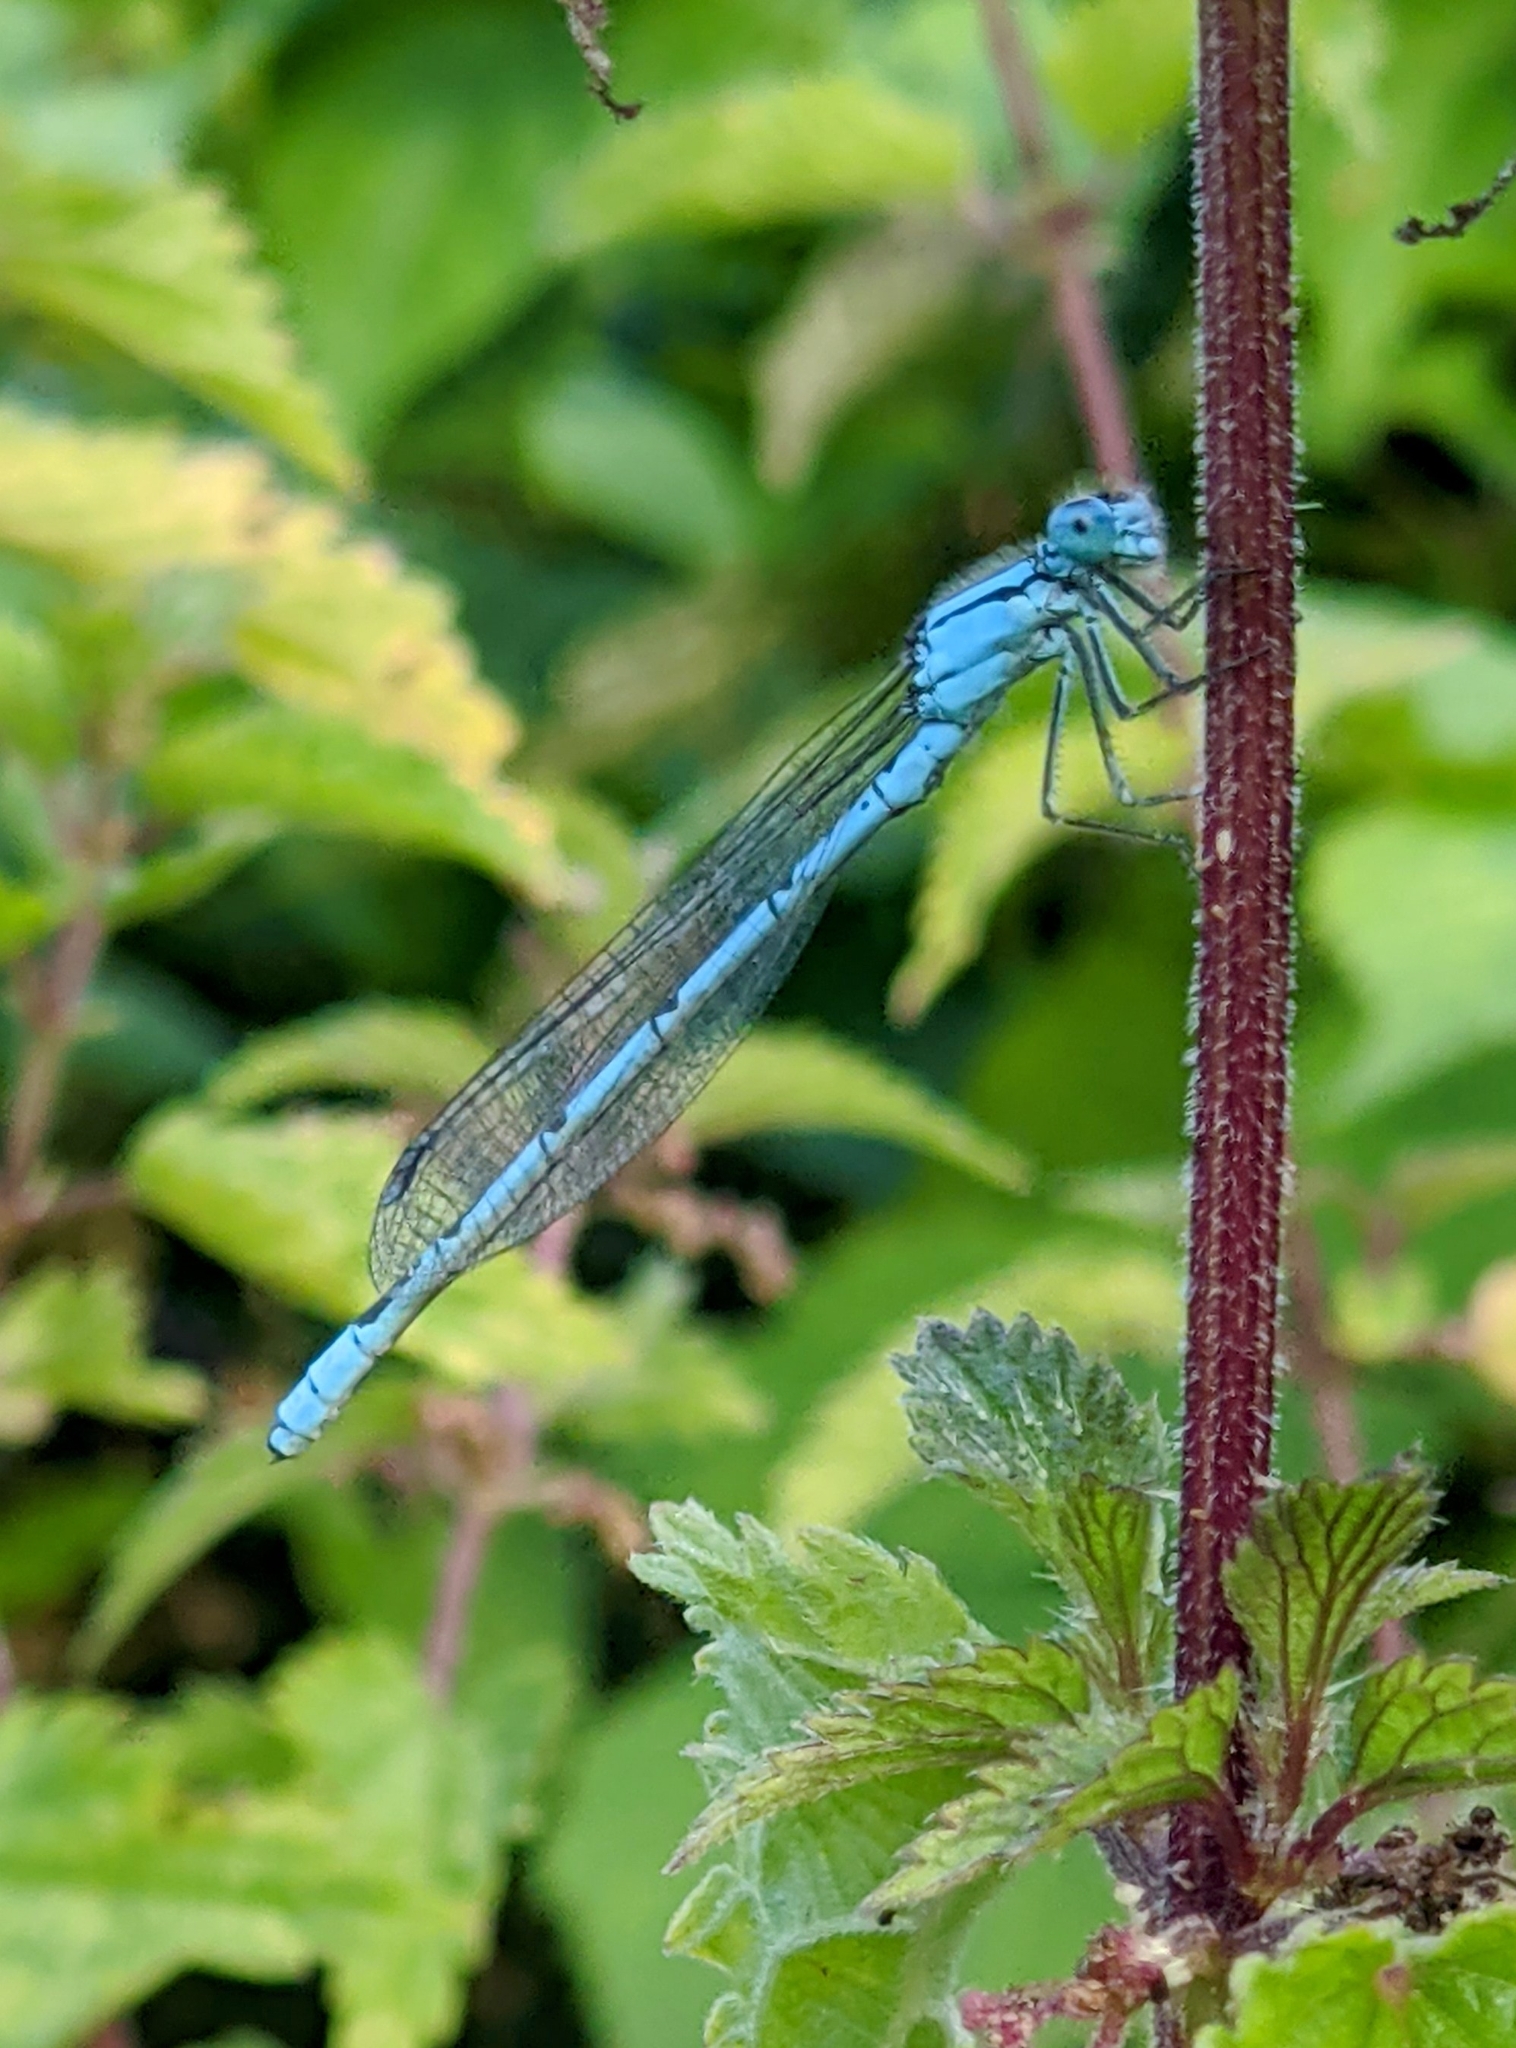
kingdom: Animalia
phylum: Arthropoda
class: Insecta
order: Odonata
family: Coenagrionidae
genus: Enallagma
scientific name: Enallagma cyathigerum
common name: Common blue damselfly
